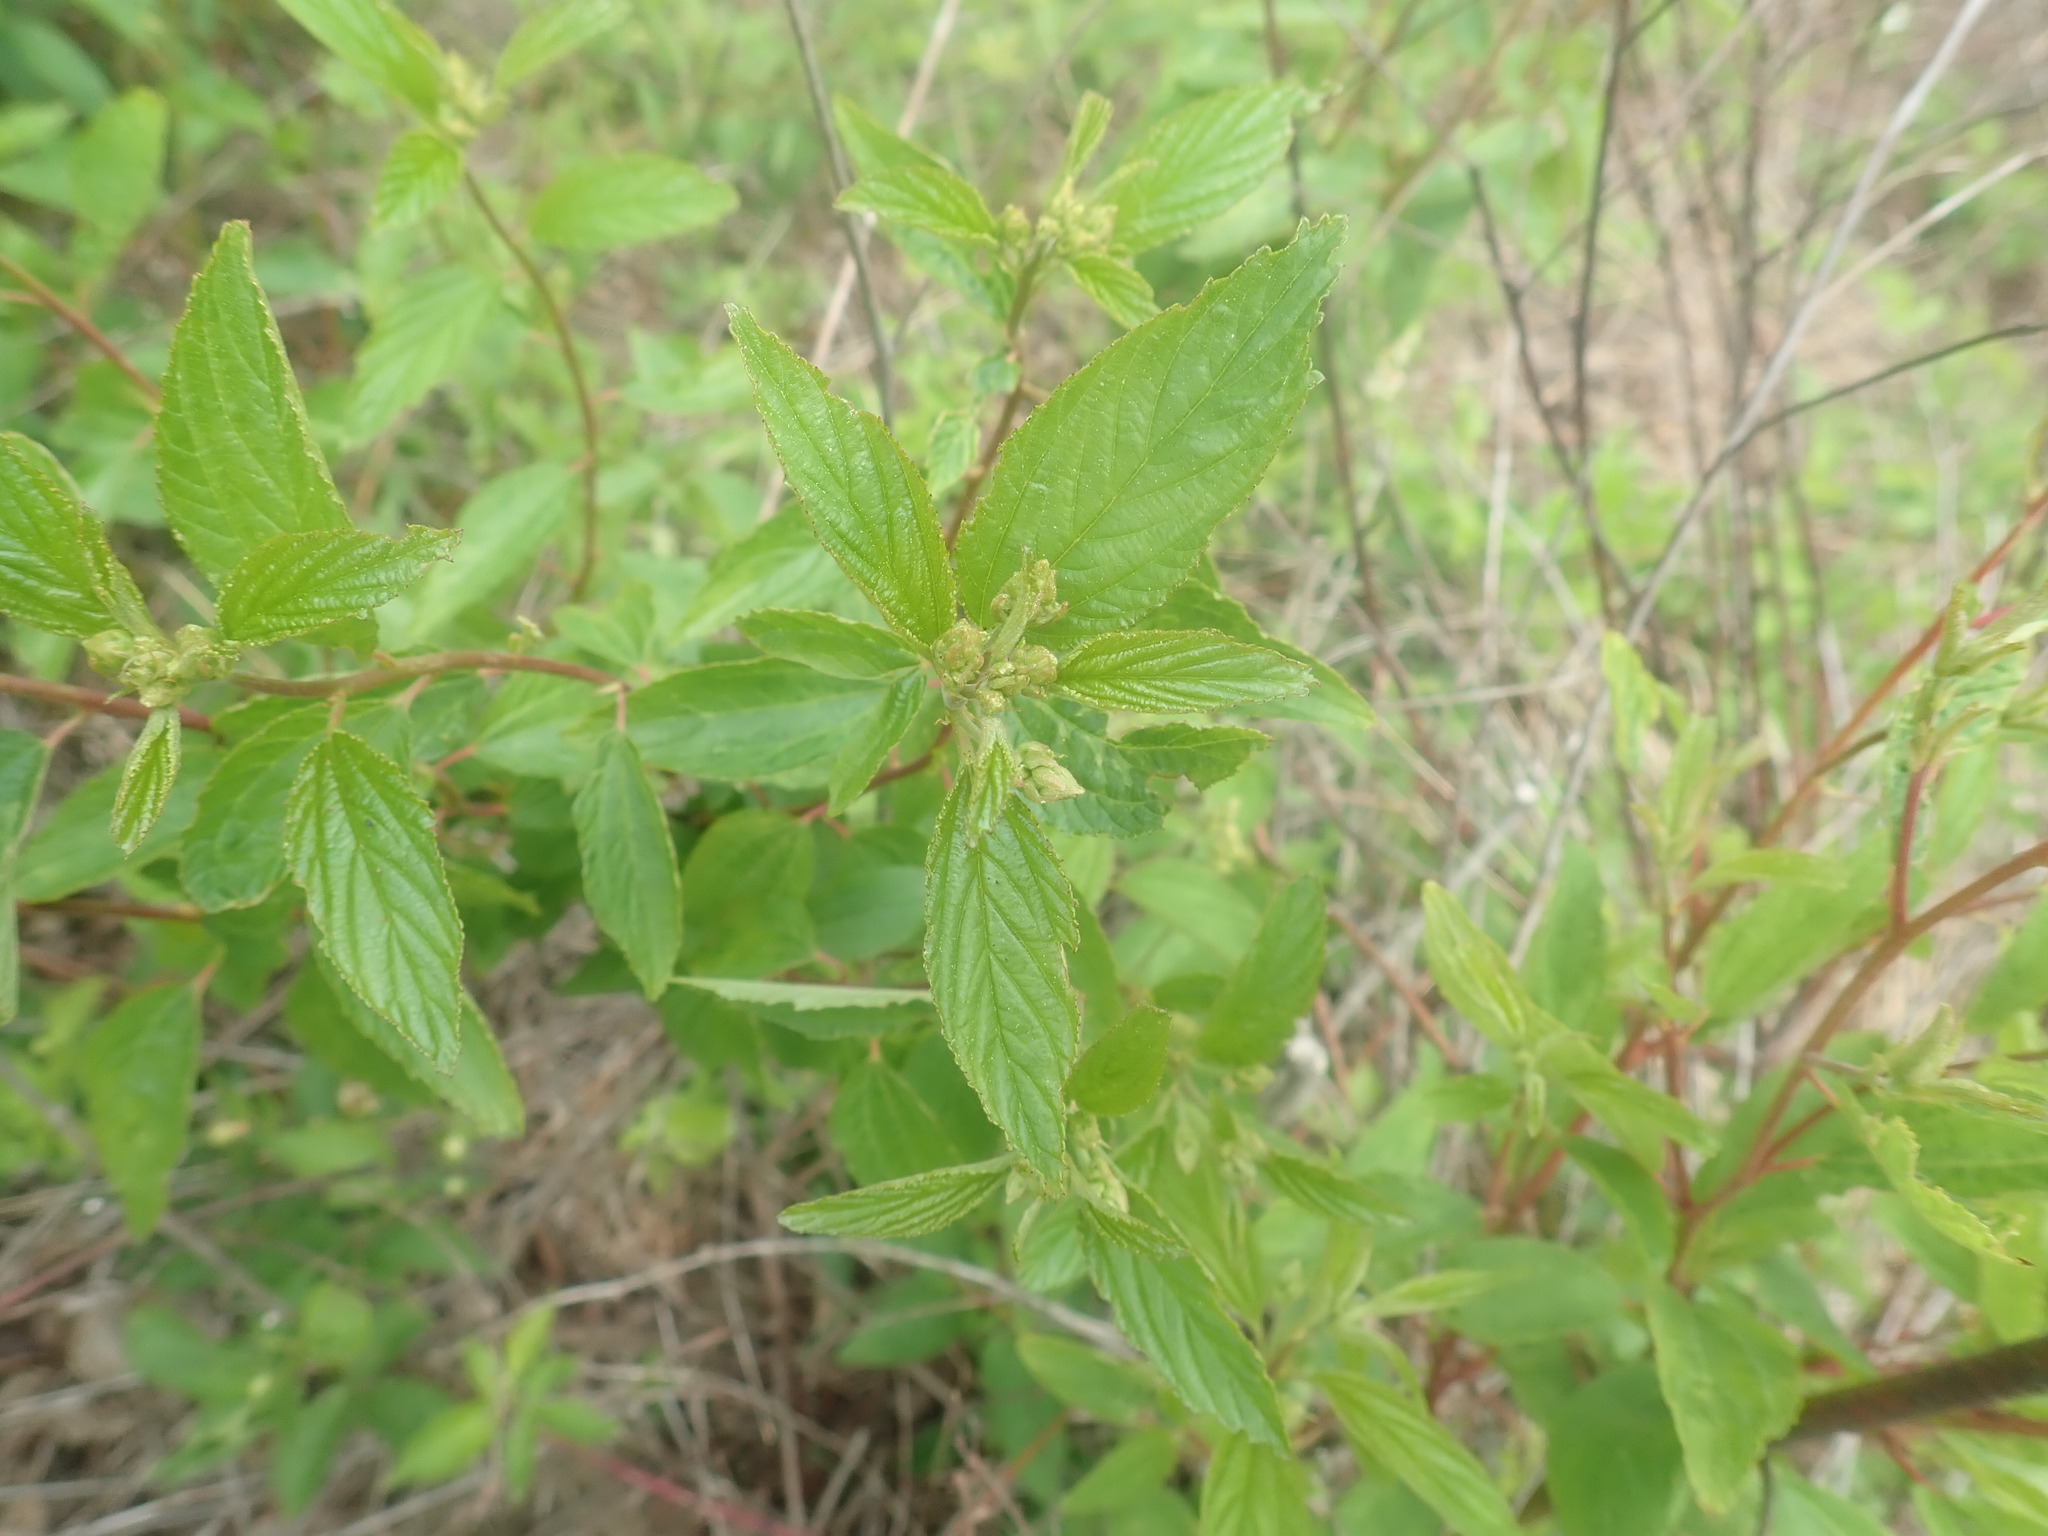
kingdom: Plantae
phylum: Tracheophyta
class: Magnoliopsida
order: Rosales
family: Rhamnaceae
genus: Ceanothus
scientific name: Ceanothus americanus
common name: Redroot
